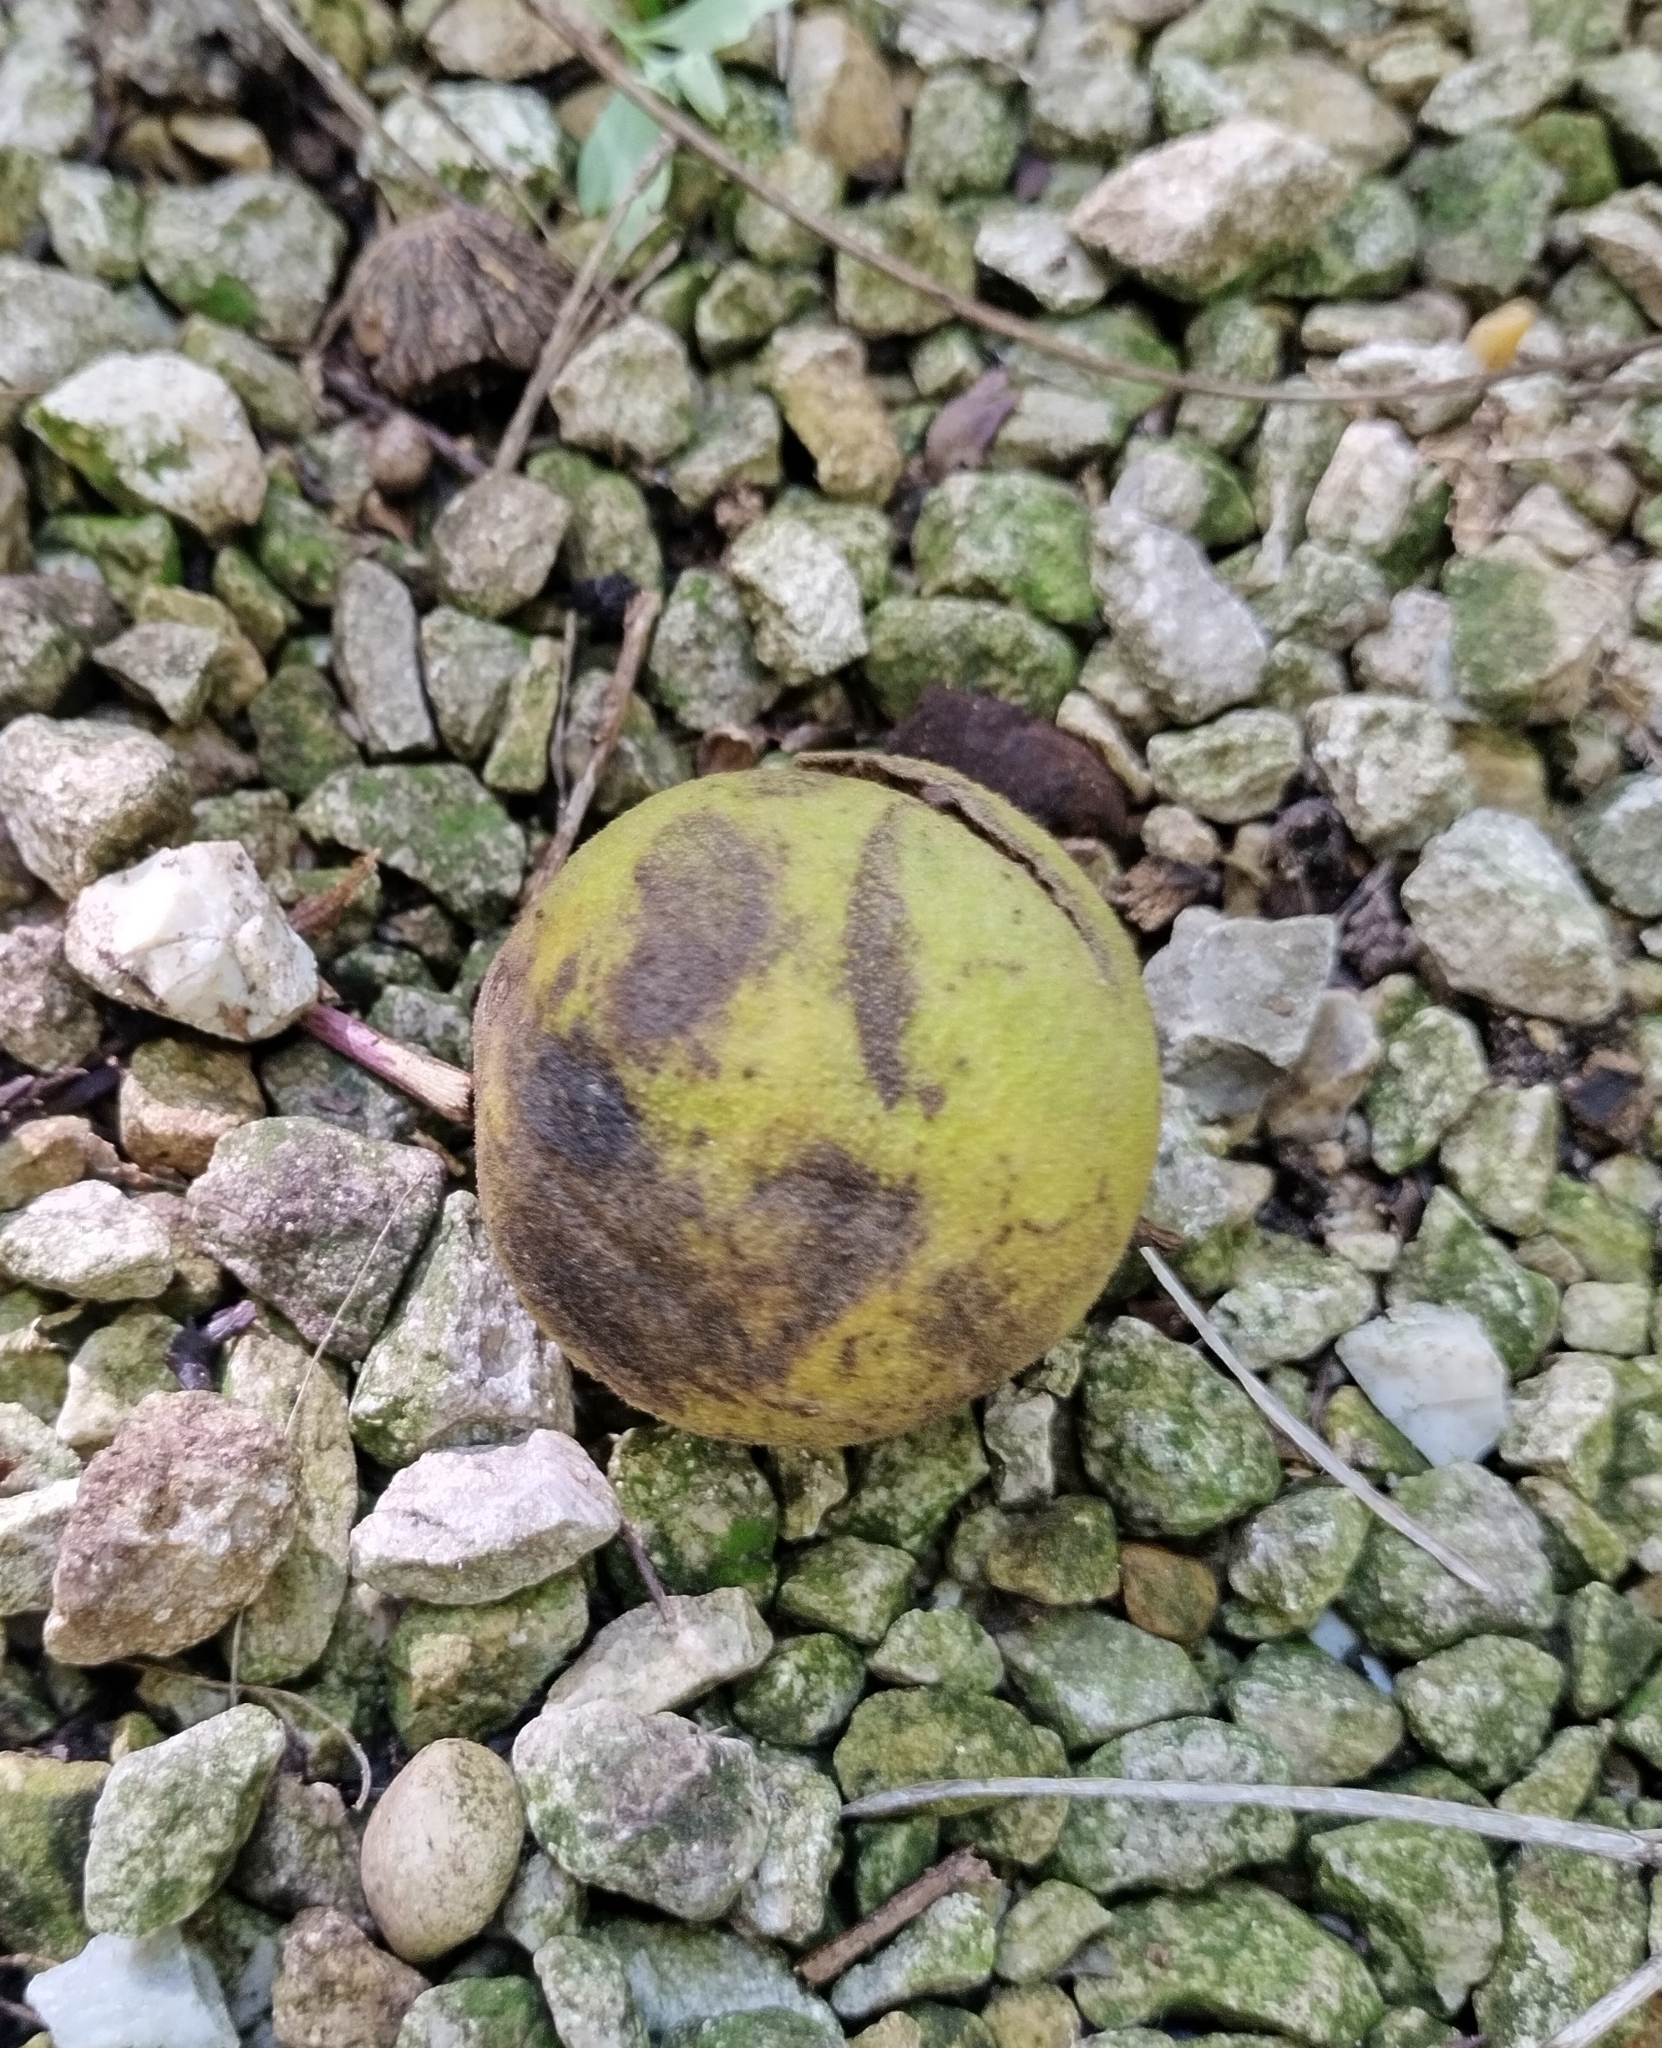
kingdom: Plantae
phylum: Tracheophyta
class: Magnoliopsida
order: Fagales
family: Juglandaceae
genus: Juglans
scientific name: Juglans nigra
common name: Black walnut
